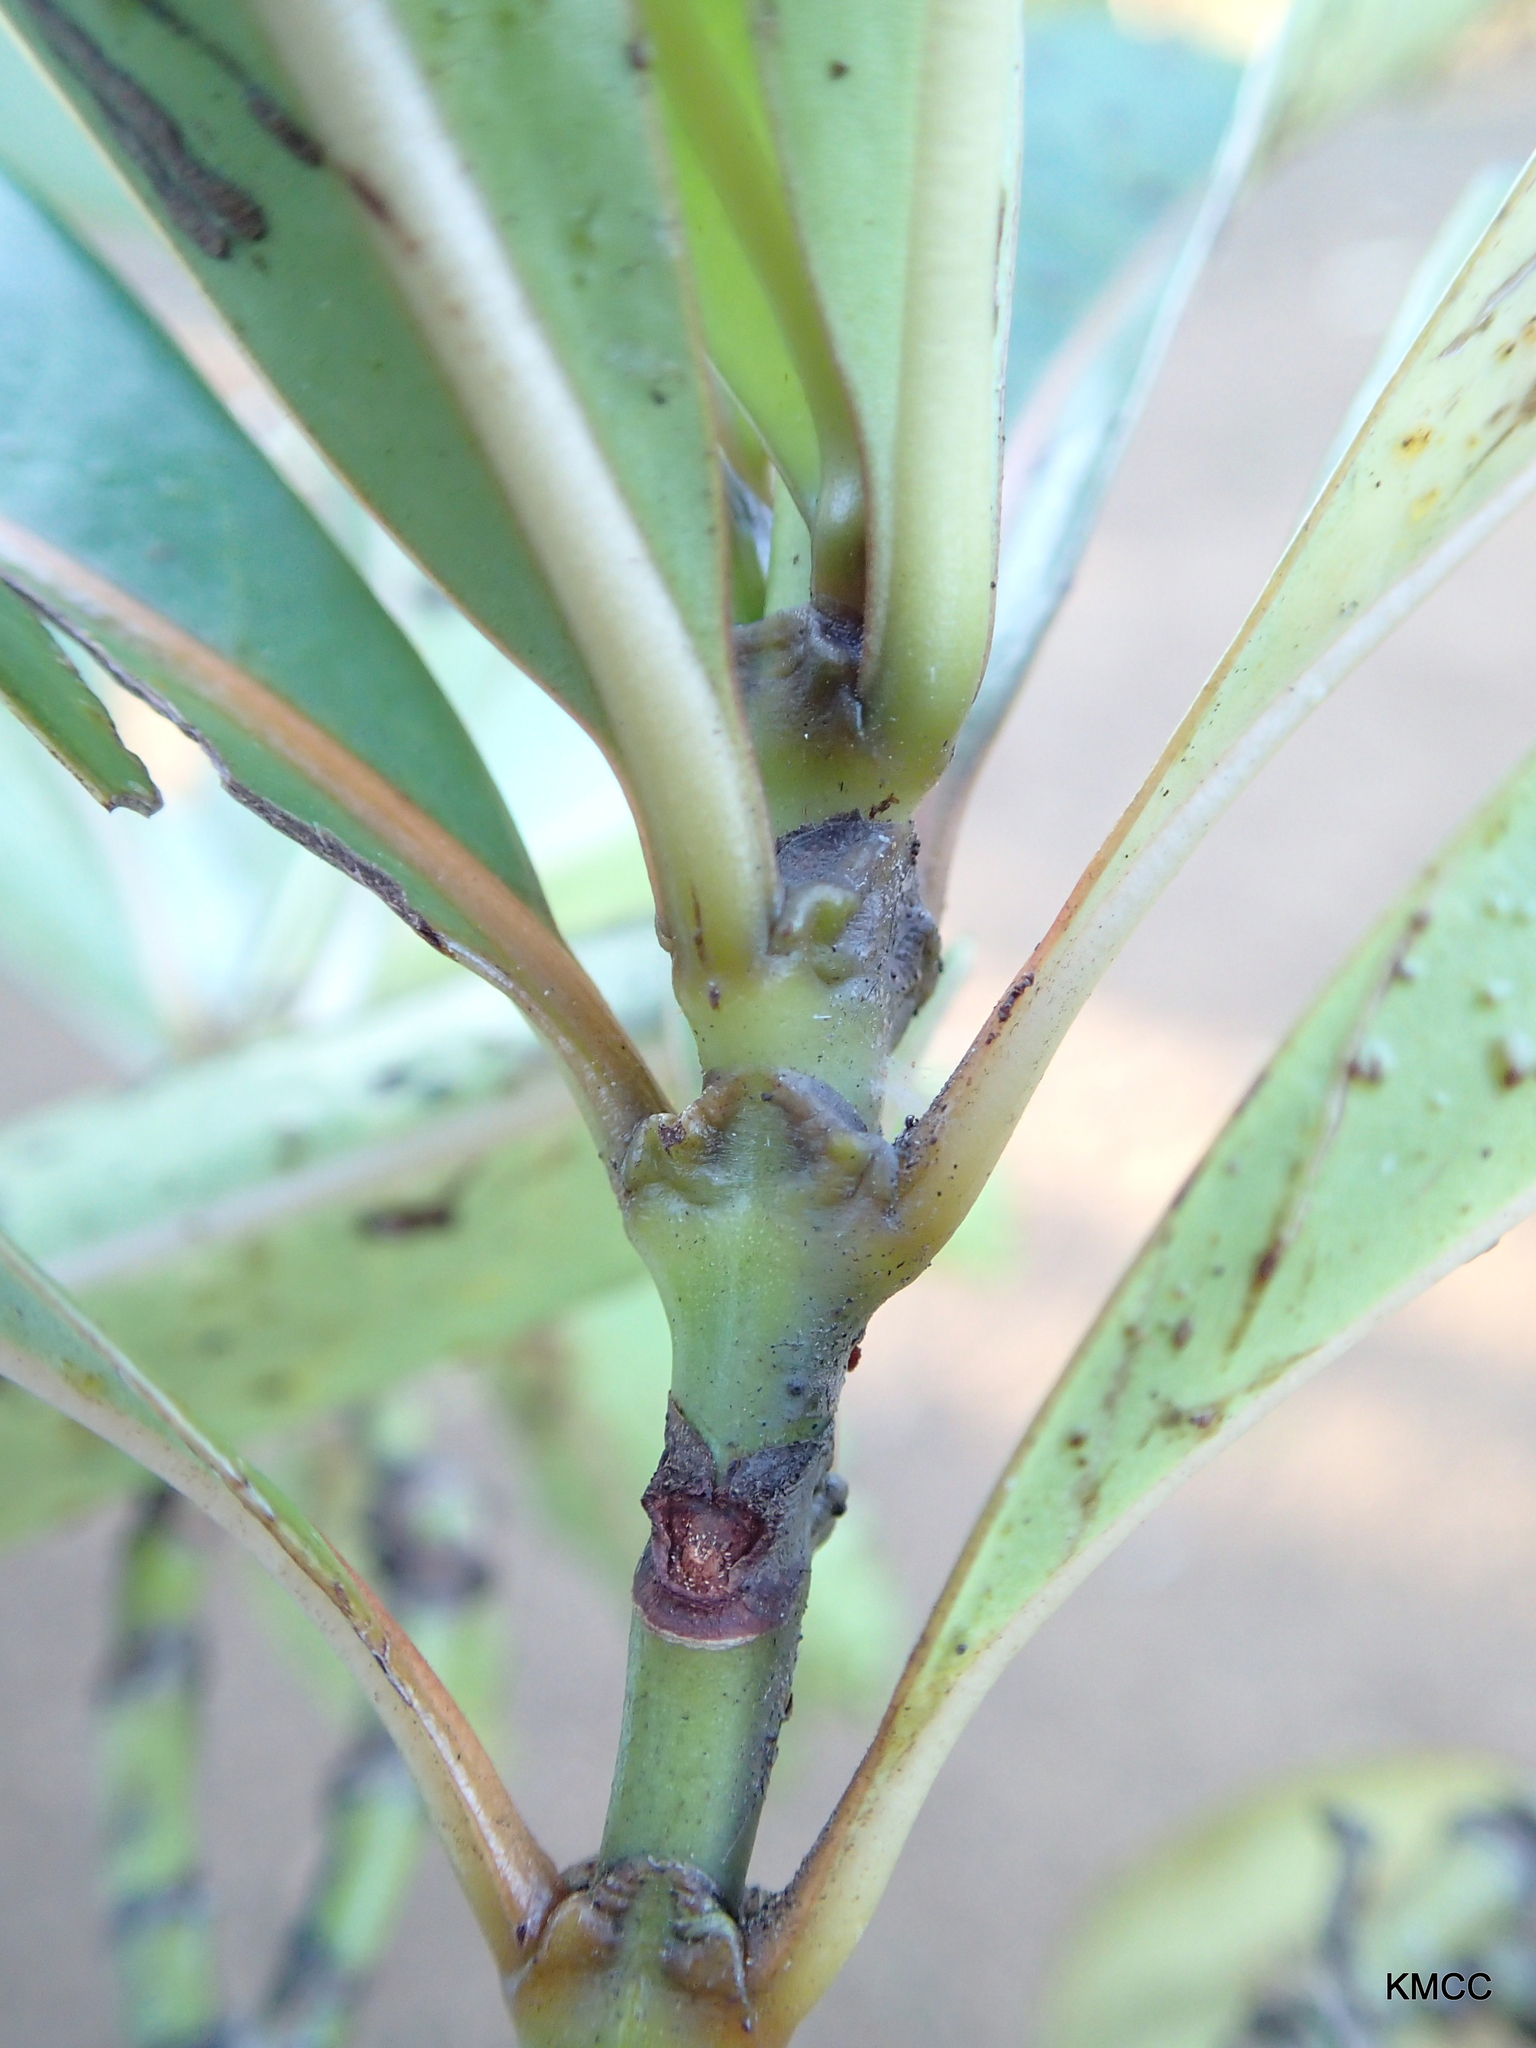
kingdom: Plantae
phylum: Tracheophyta
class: Magnoliopsida
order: Gentianales
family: Rubiaceae
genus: Psychotria
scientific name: Psychotria lantzii
